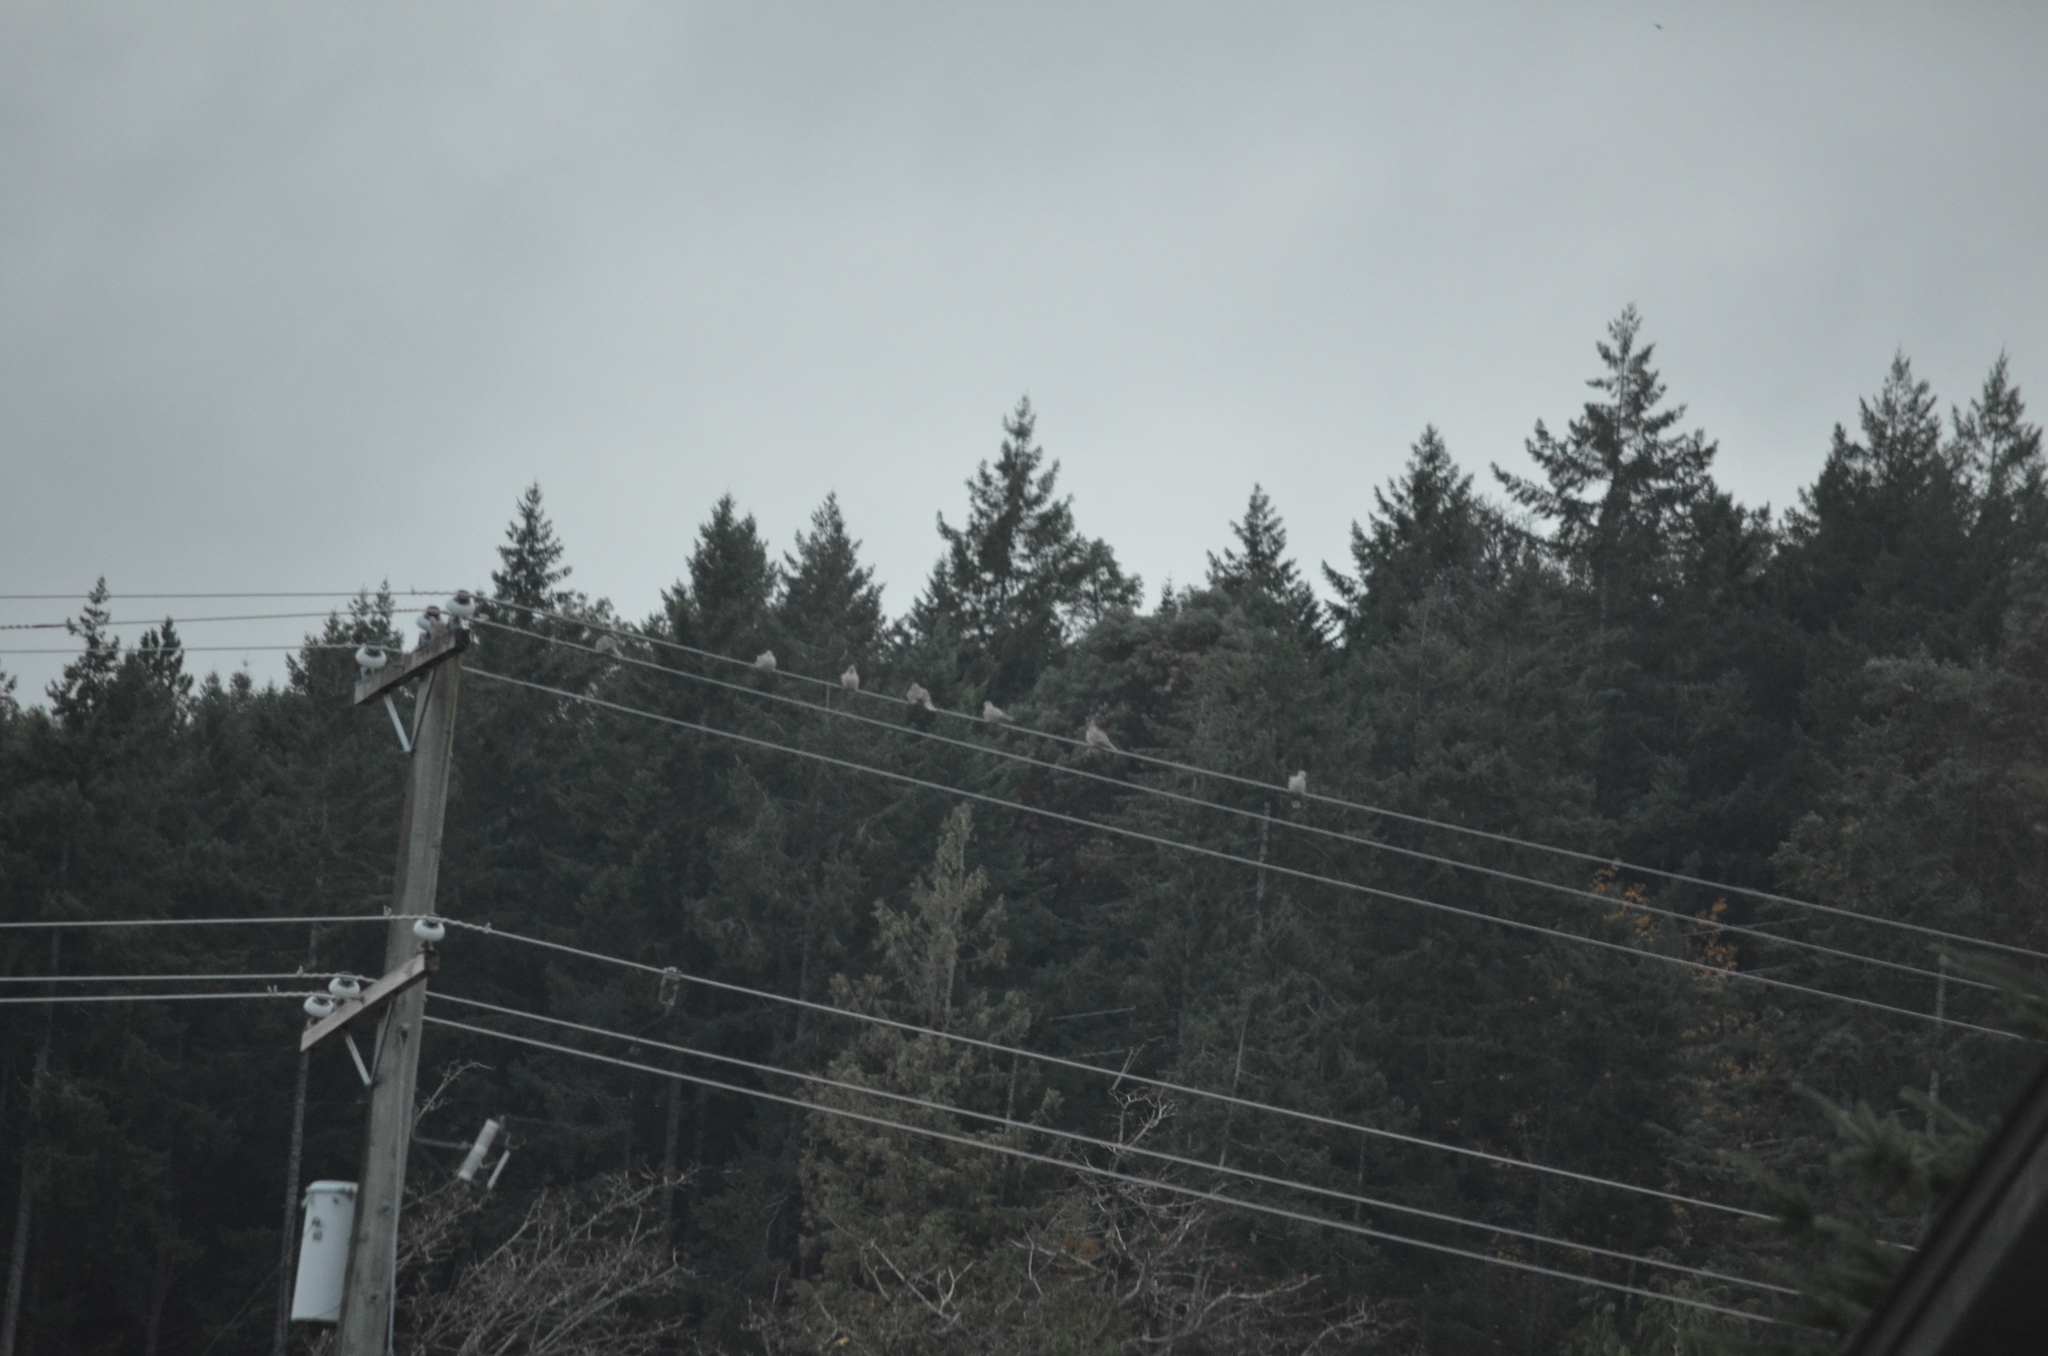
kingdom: Animalia
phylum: Chordata
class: Aves
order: Columbiformes
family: Columbidae
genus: Streptopelia
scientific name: Streptopelia decaocto
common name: Eurasian collared dove
